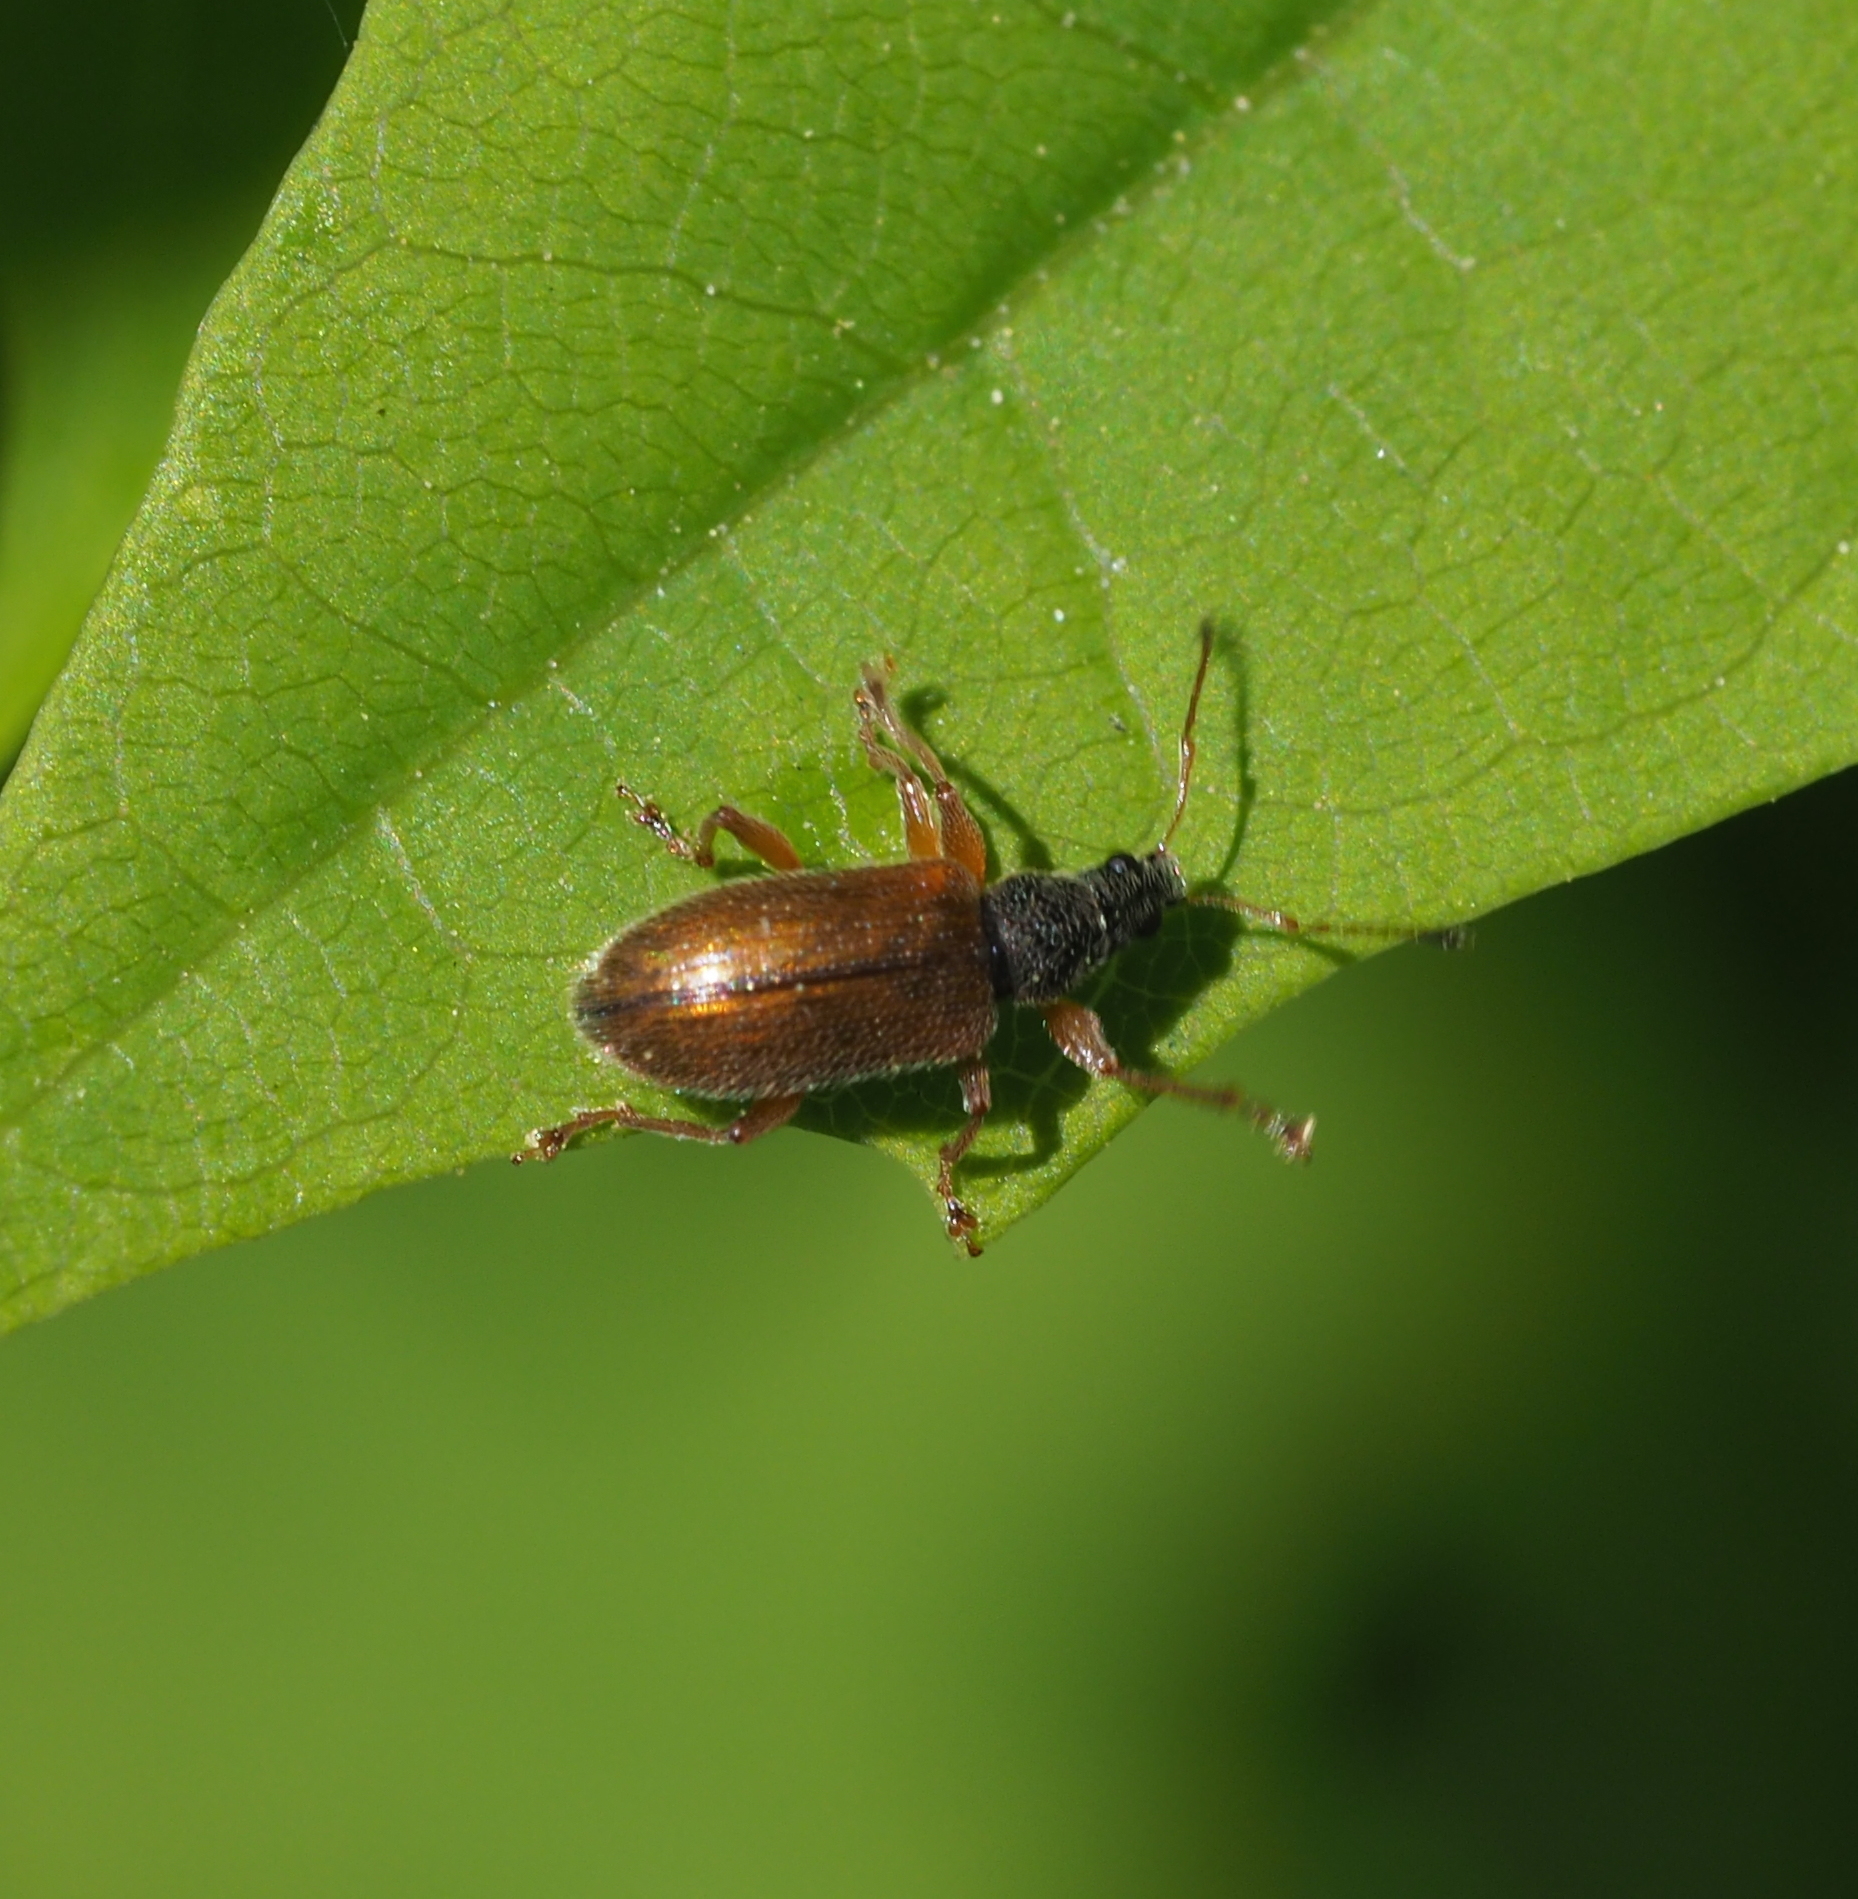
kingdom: Animalia
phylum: Arthropoda
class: Insecta
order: Coleoptera
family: Curculionidae
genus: Phyllobius
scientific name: Phyllobius oblongus
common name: Brown leaf weevil
